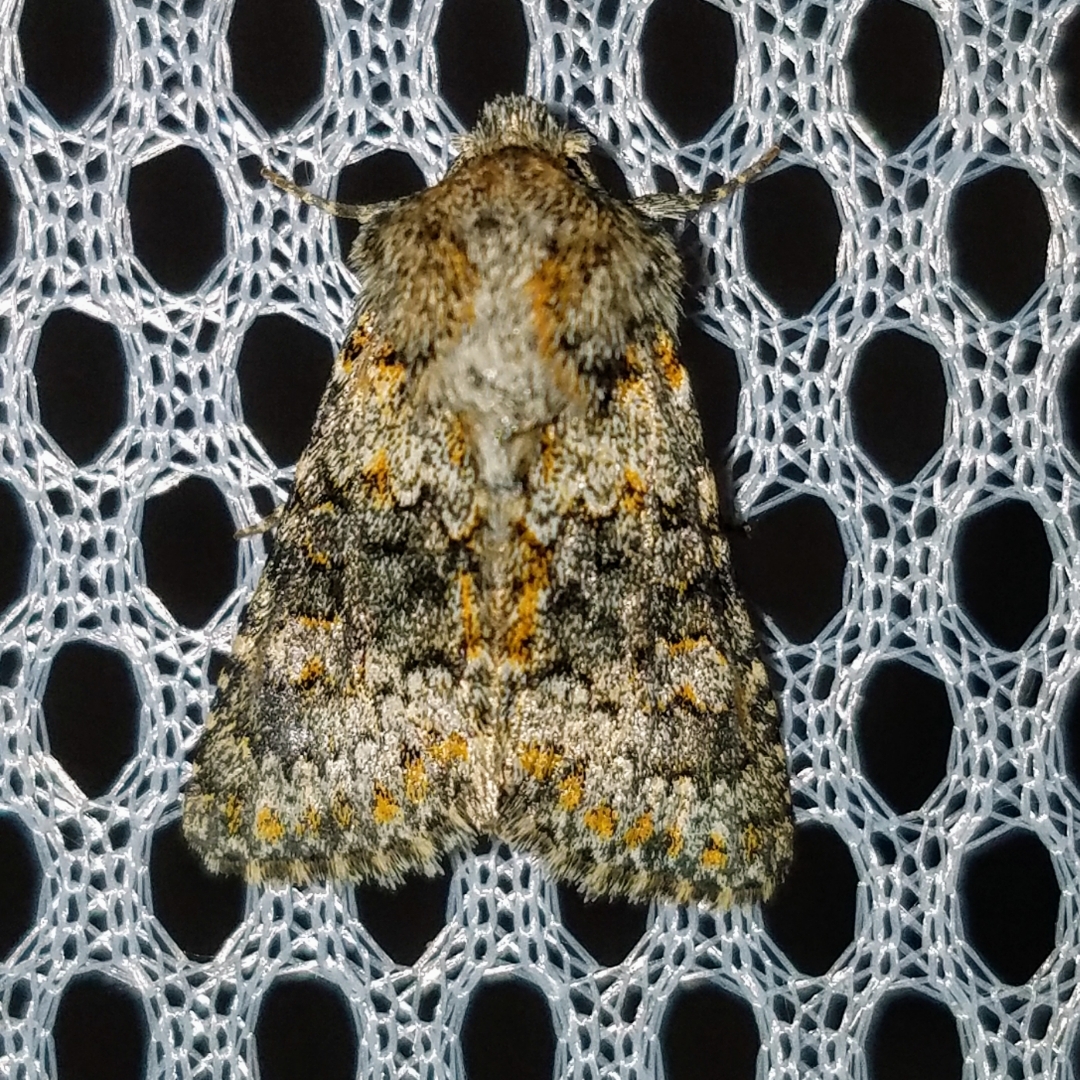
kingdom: Animalia
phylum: Arthropoda
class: Insecta
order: Lepidoptera
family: Noctuidae
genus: Hecatera
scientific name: Hecatera dysodea
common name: Small ranunculus
